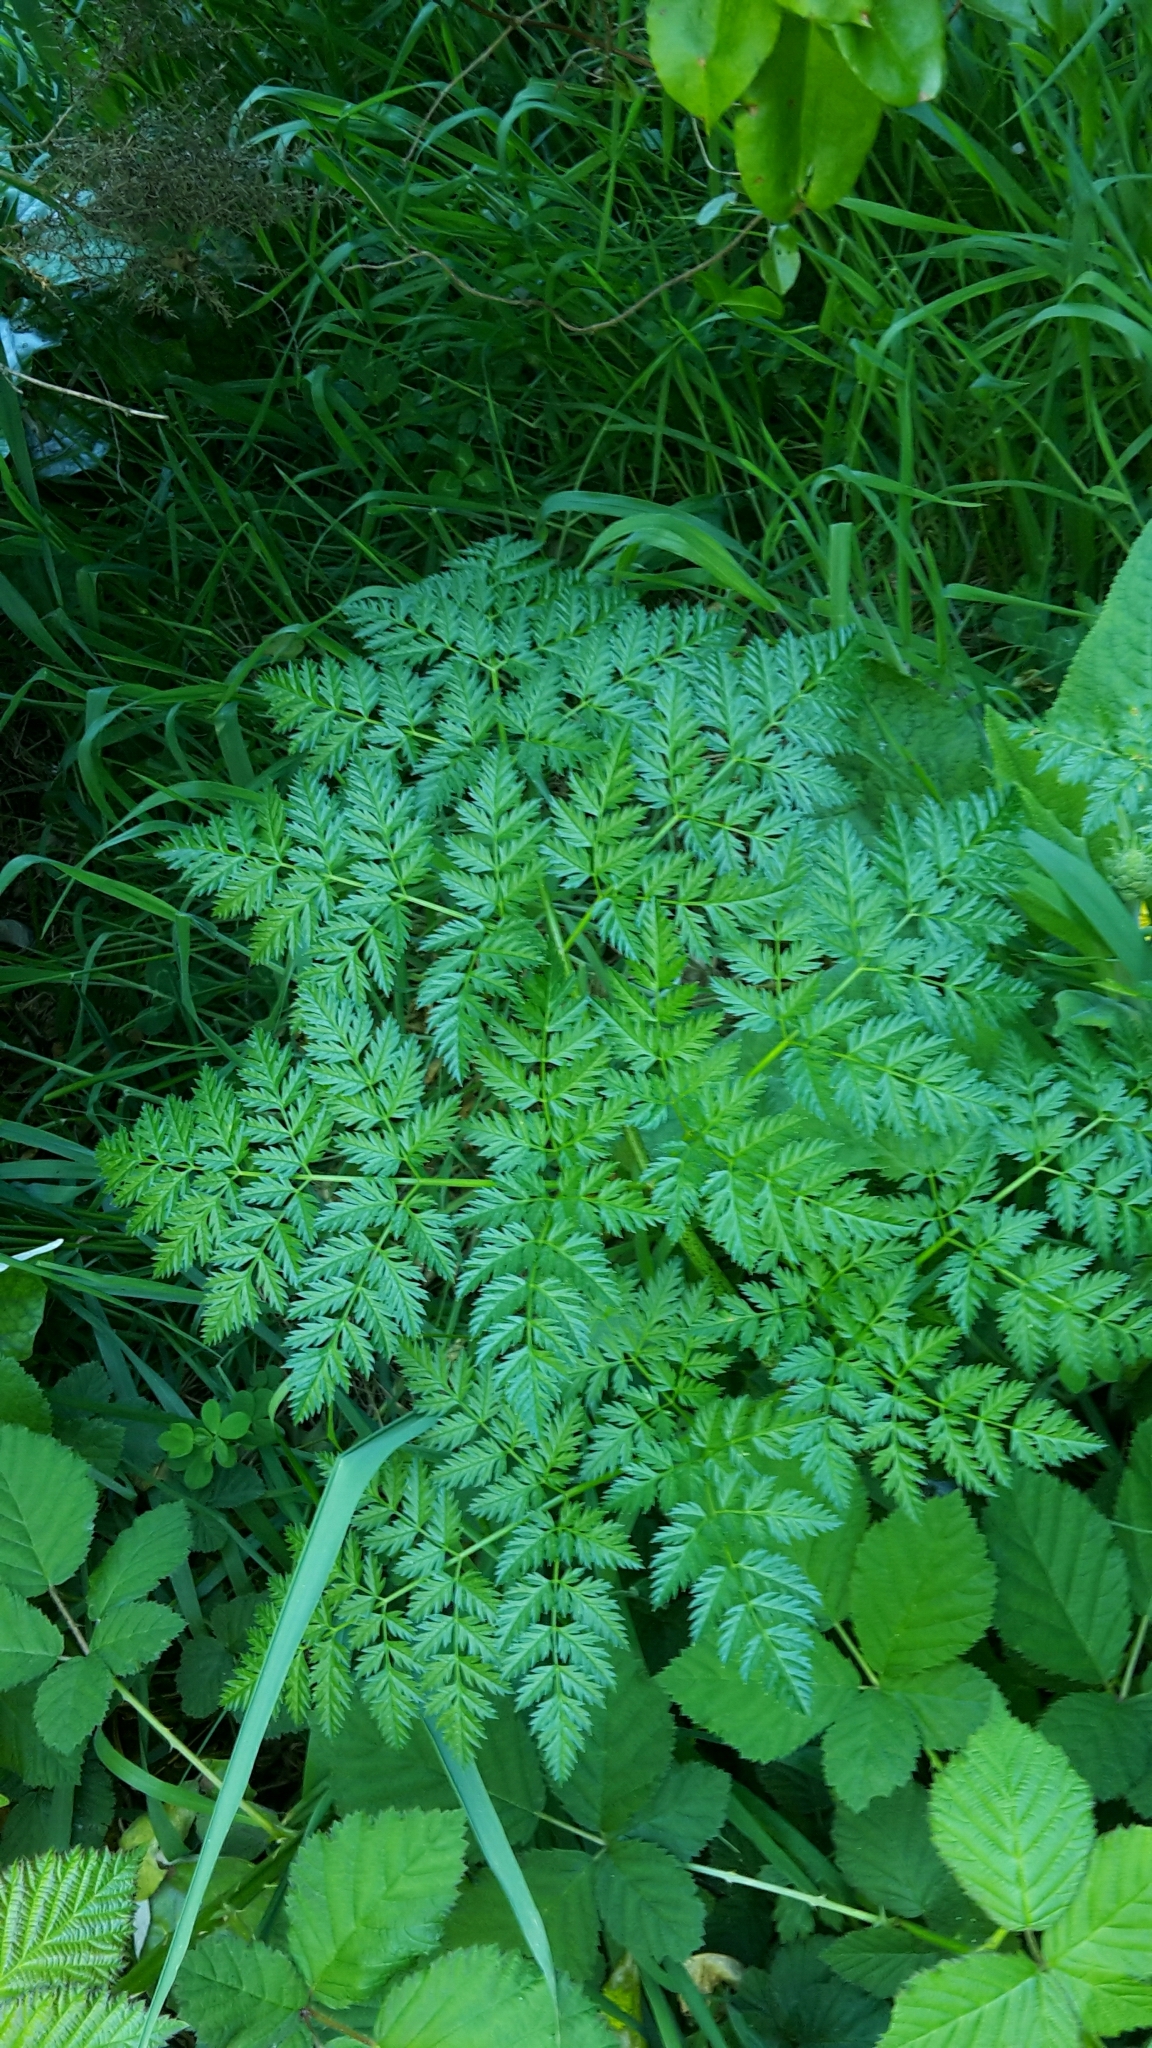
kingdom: Plantae
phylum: Tracheophyta
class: Magnoliopsida
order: Apiales
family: Apiaceae
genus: Conium
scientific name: Conium maculatum
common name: Hemlock
